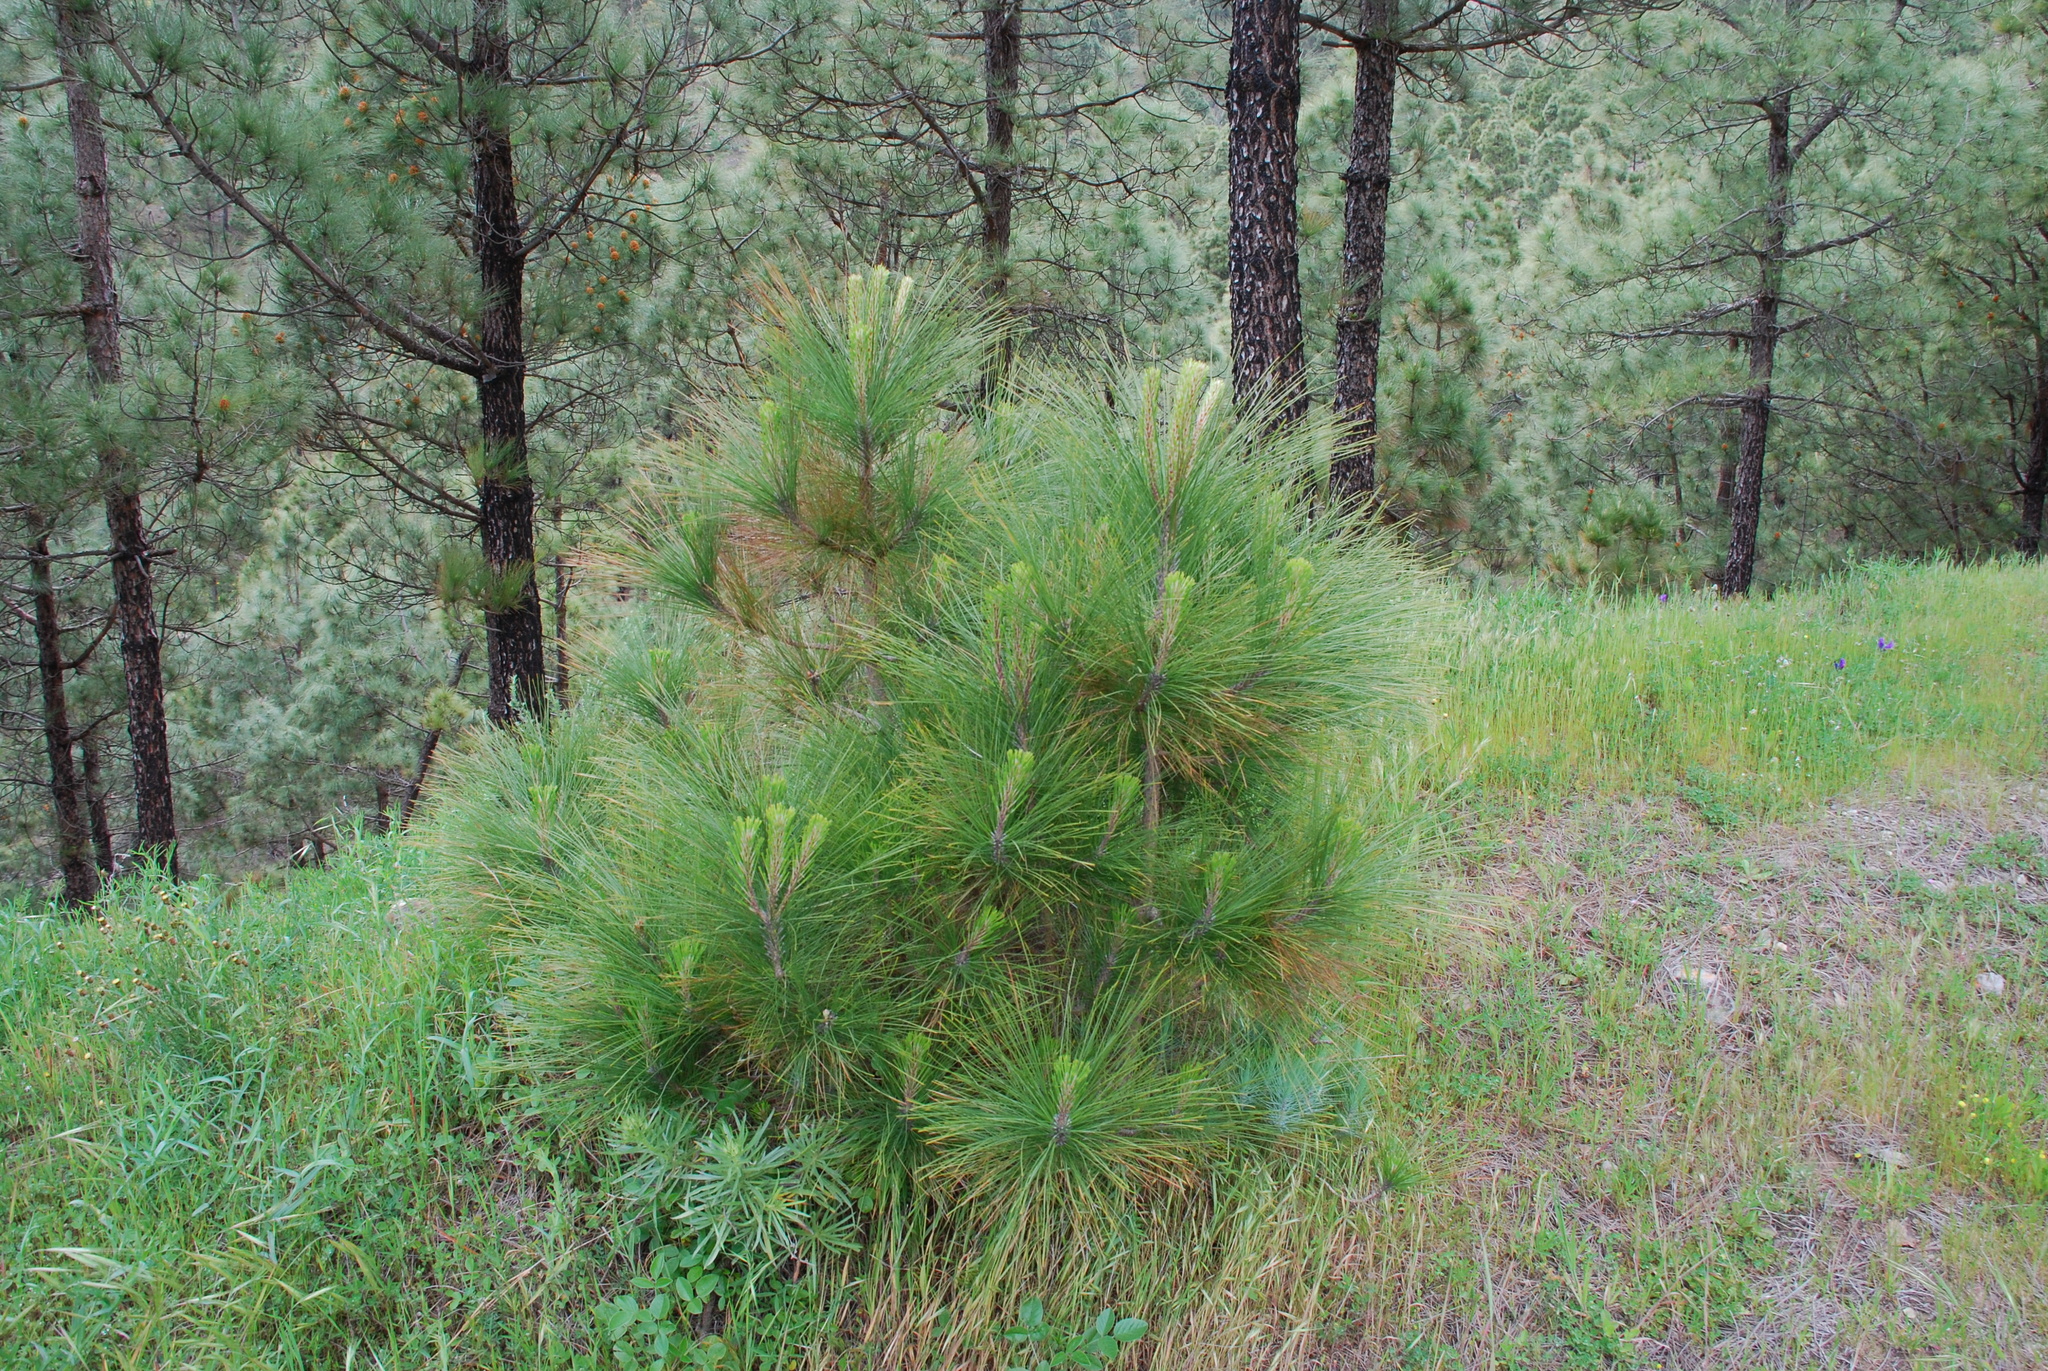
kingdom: Plantae
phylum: Tracheophyta
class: Pinopsida
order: Pinales
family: Pinaceae
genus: Pinus
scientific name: Pinus canariensis
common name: Canary islands pine
